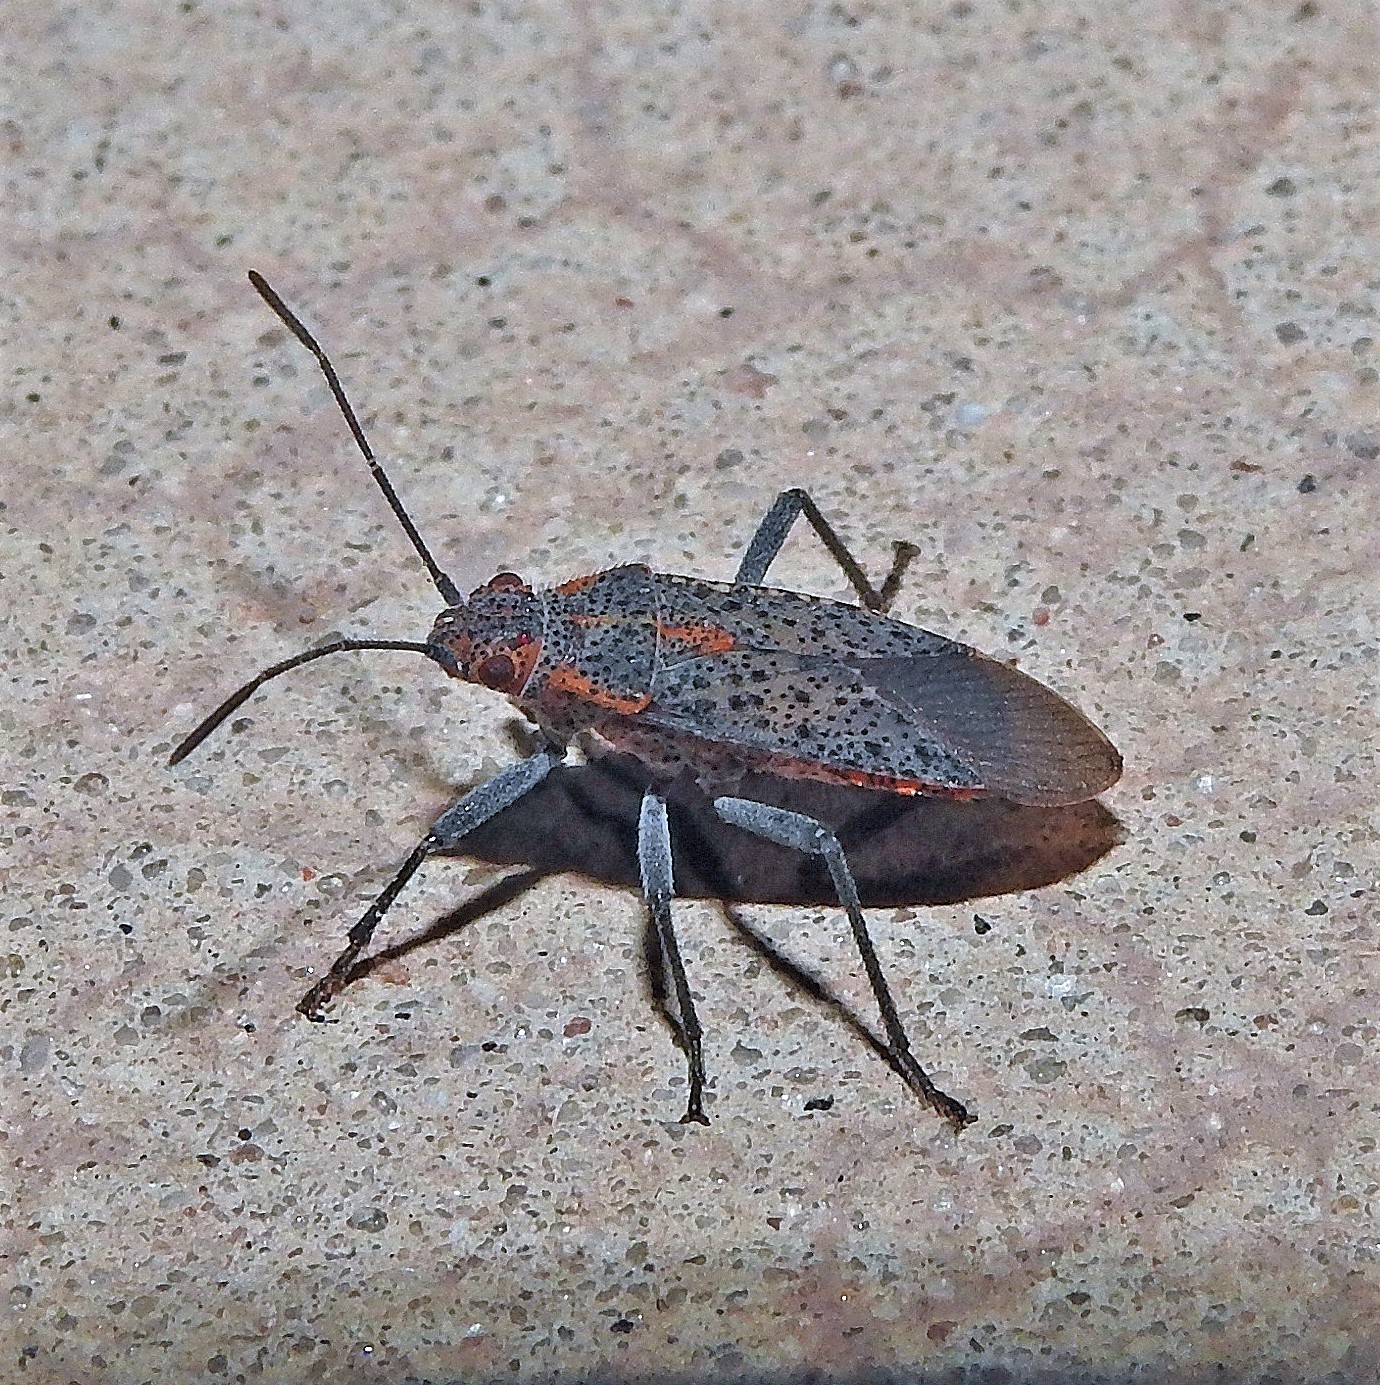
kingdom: Animalia
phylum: Arthropoda
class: Insecta
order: Hemiptera
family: Rhopalidae
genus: Jadera
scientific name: Jadera coturnix
